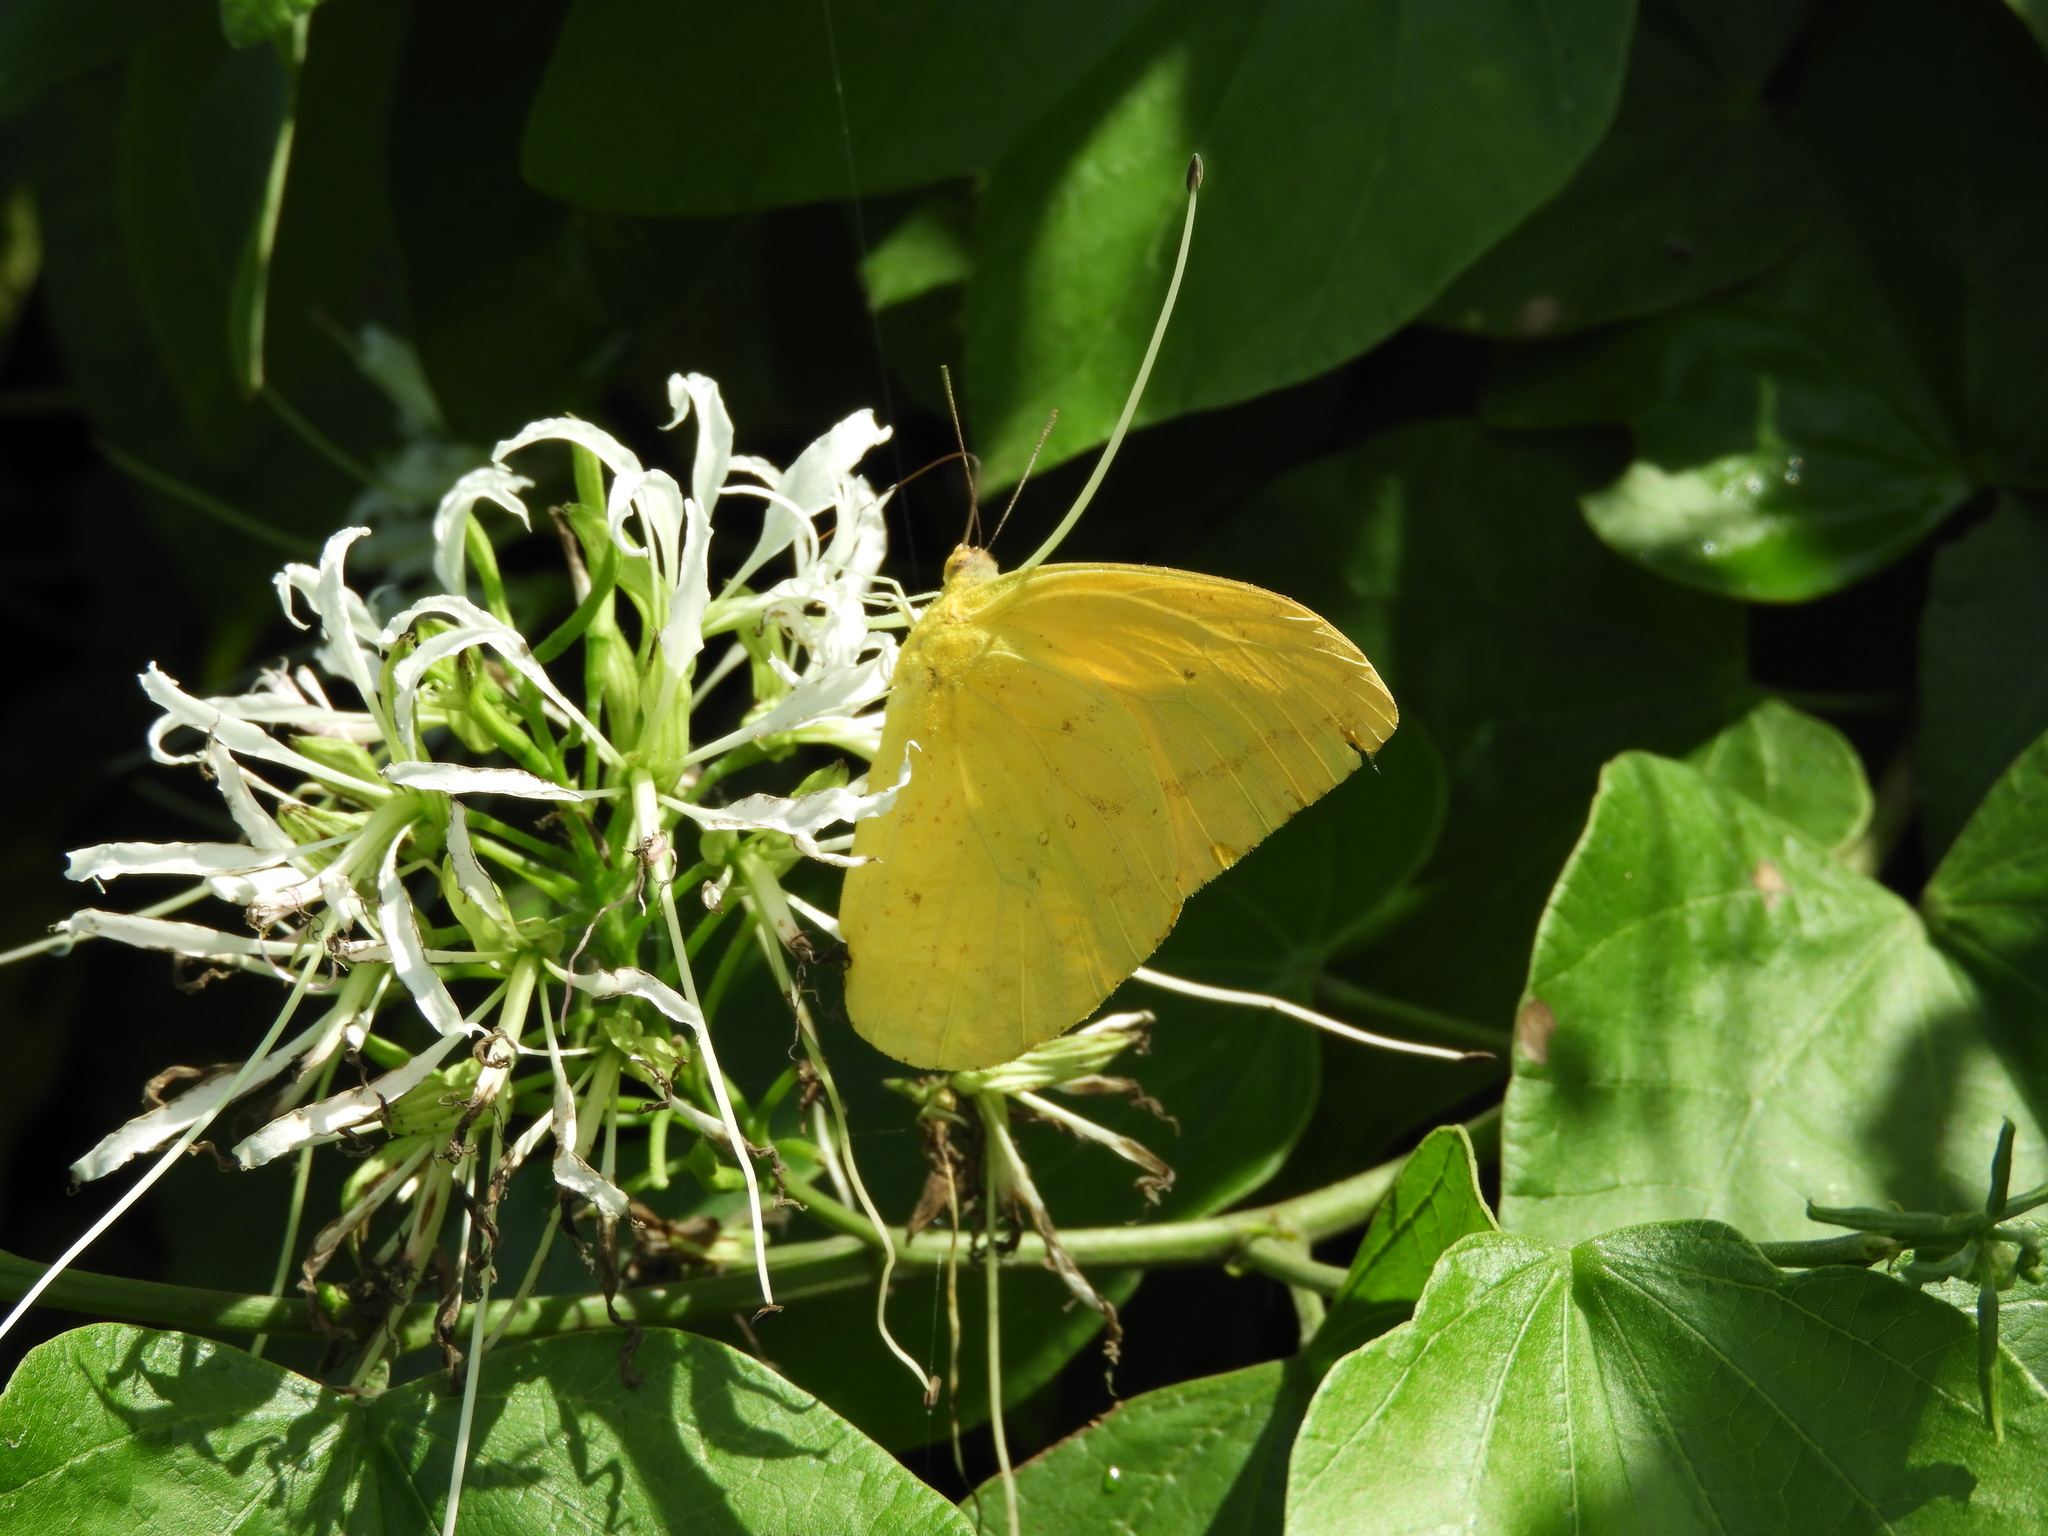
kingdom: Animalia
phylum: Arthropoda
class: Insecta
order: Lepidoptera
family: Pieridae
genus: Phoebis
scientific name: Phoebis agarithe
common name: Large orange sulphur
